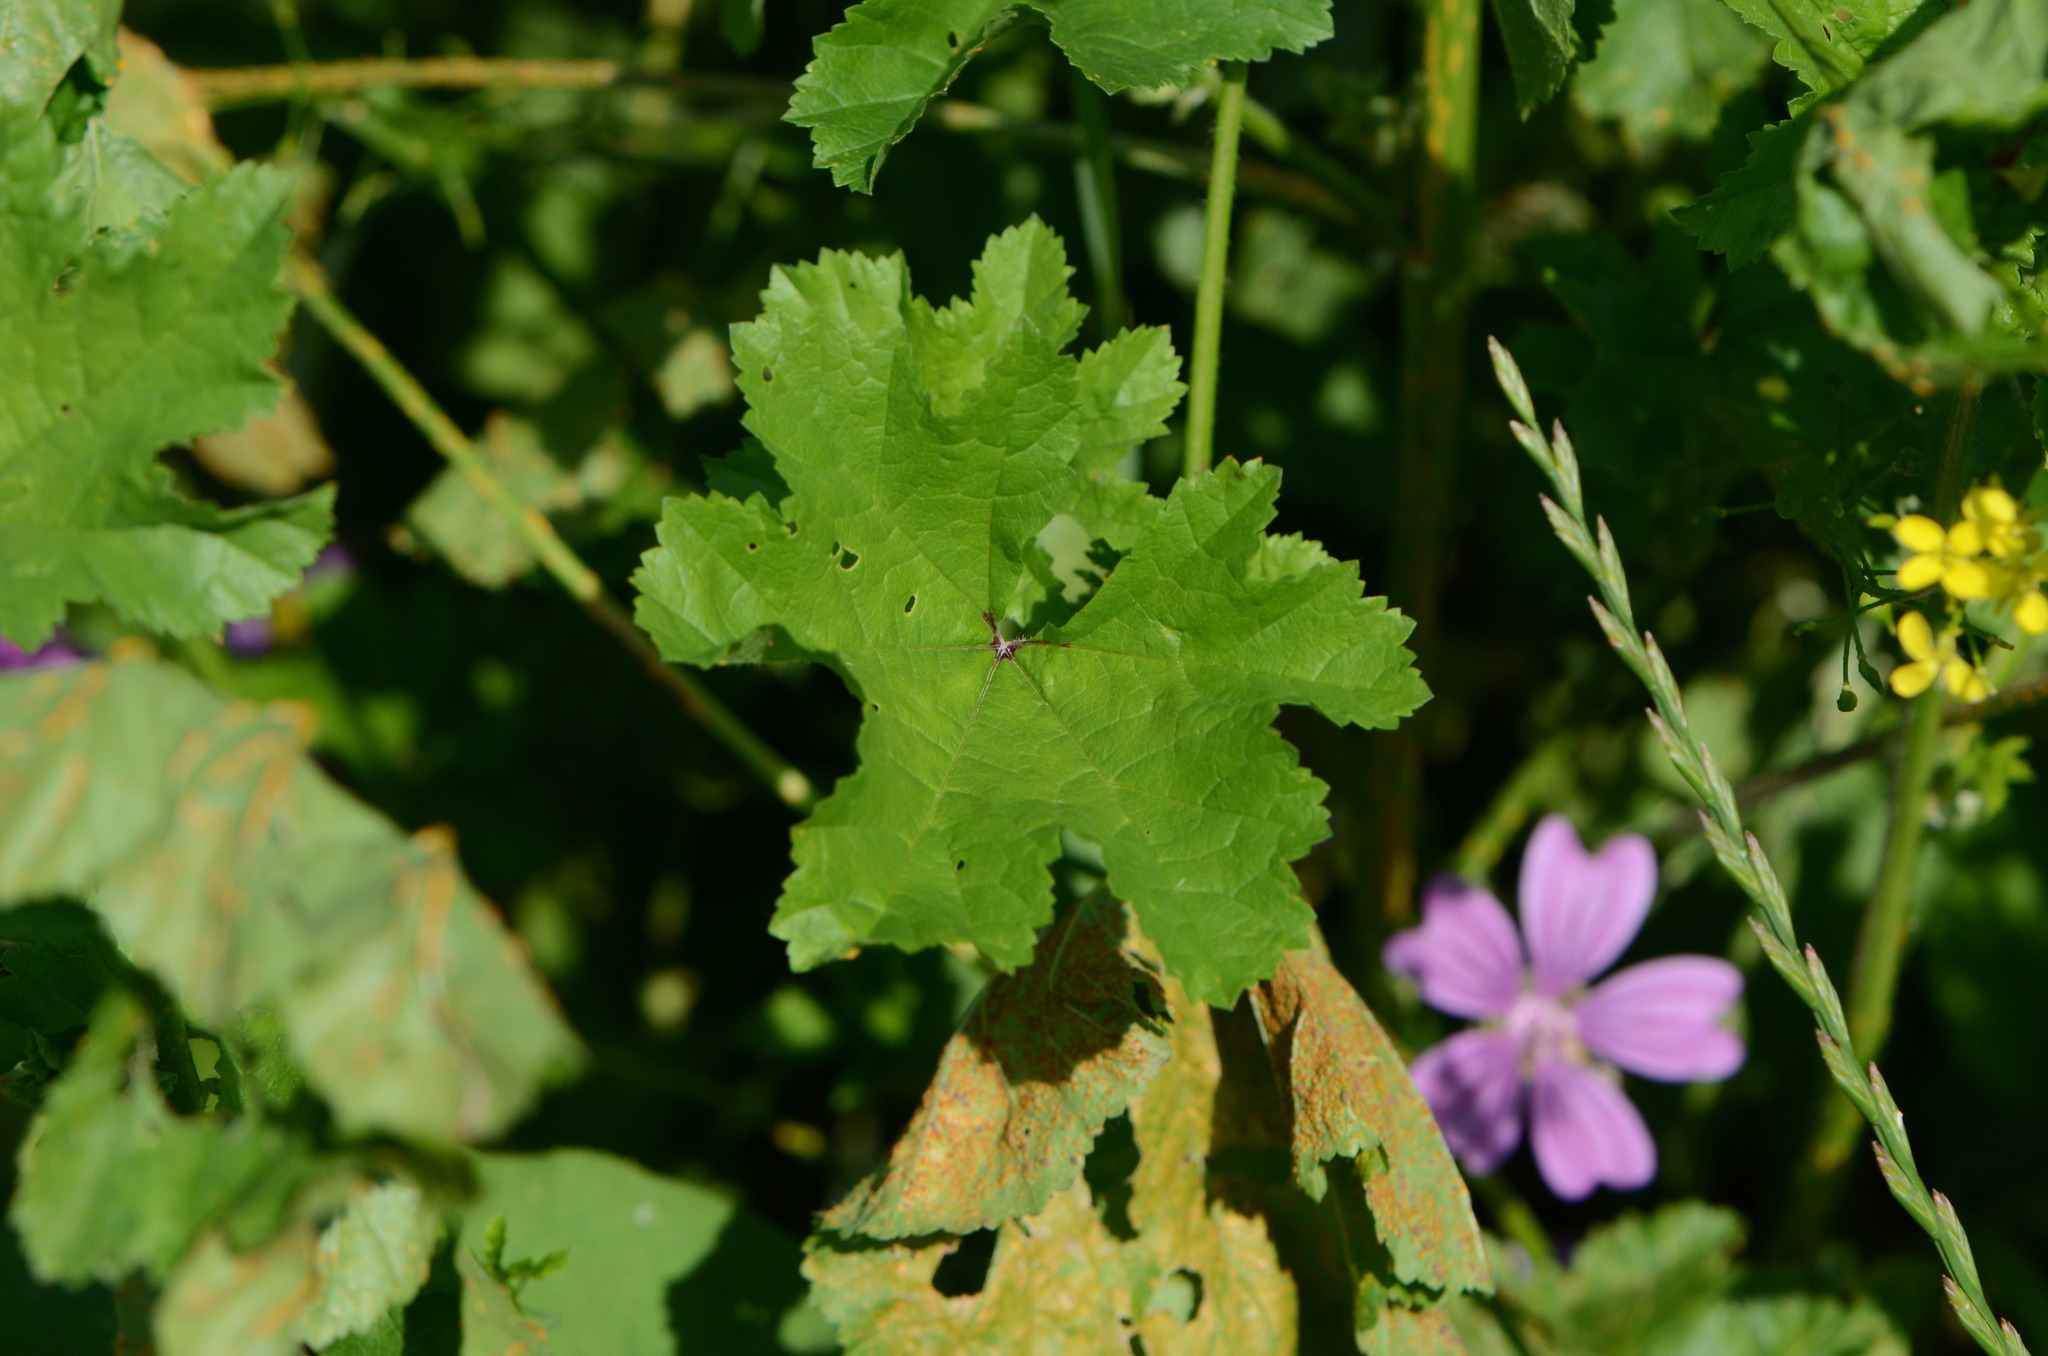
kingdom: Plantae
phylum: Tracheophyta
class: Magnoliopsida
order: Malvales
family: Malvaceae
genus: Malva
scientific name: Malva sylvestris
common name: Common mallow
